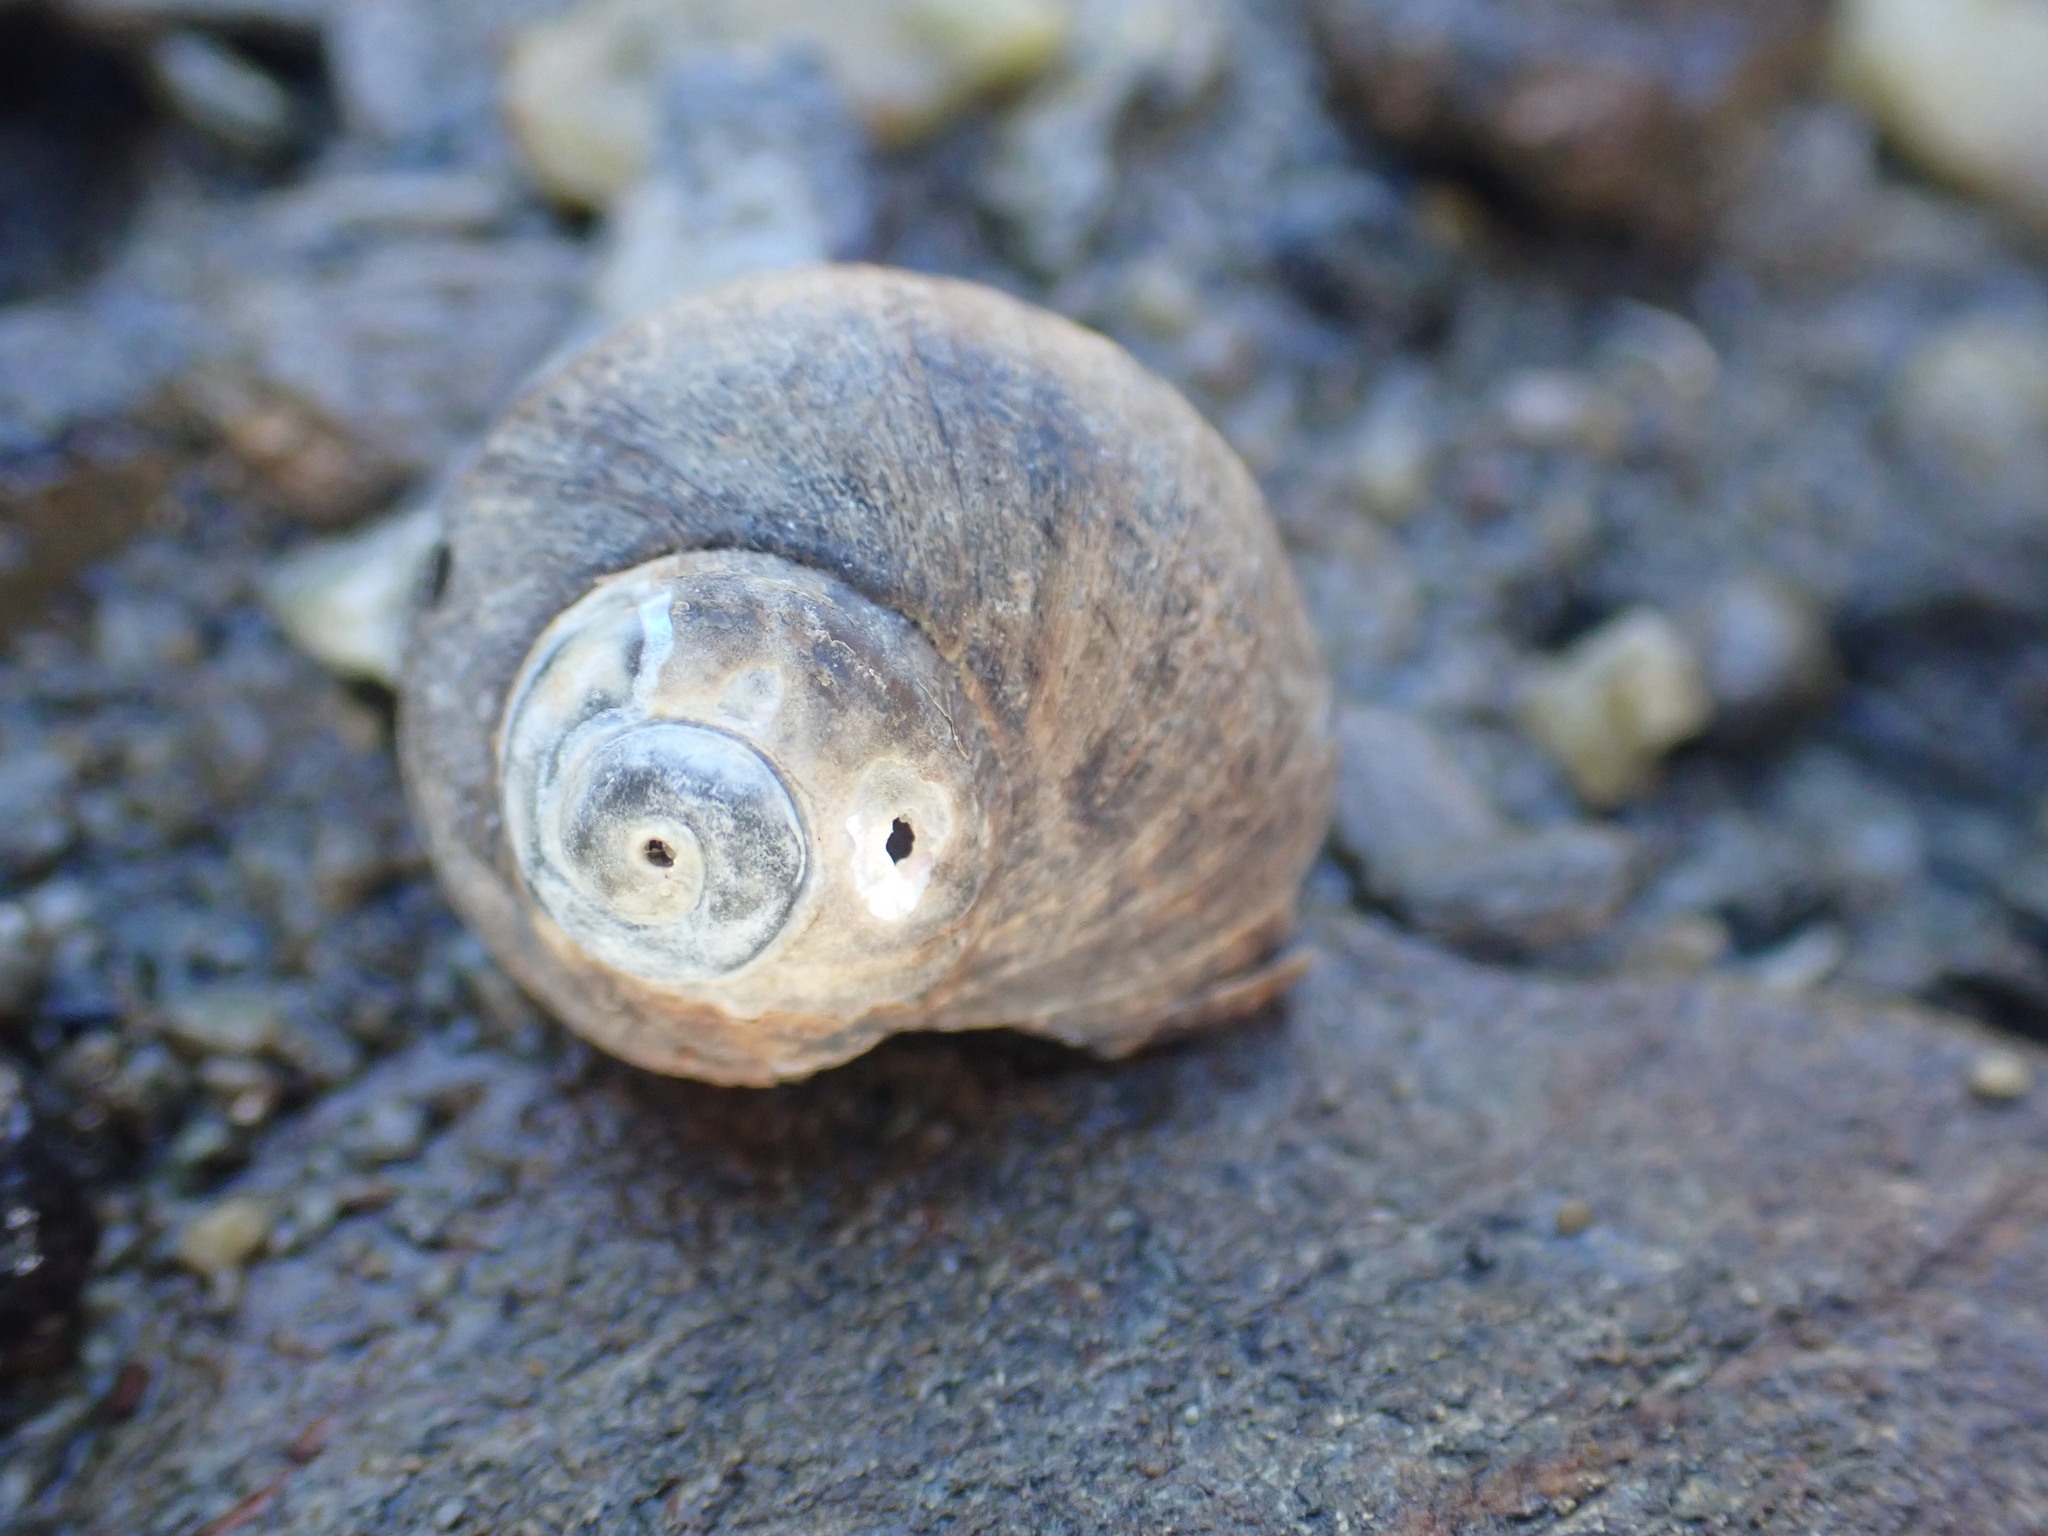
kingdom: Animalia
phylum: Mollusca
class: Gastropoda
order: Trochida
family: Turbinidae
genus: Lunella
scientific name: Lunella smaragda
